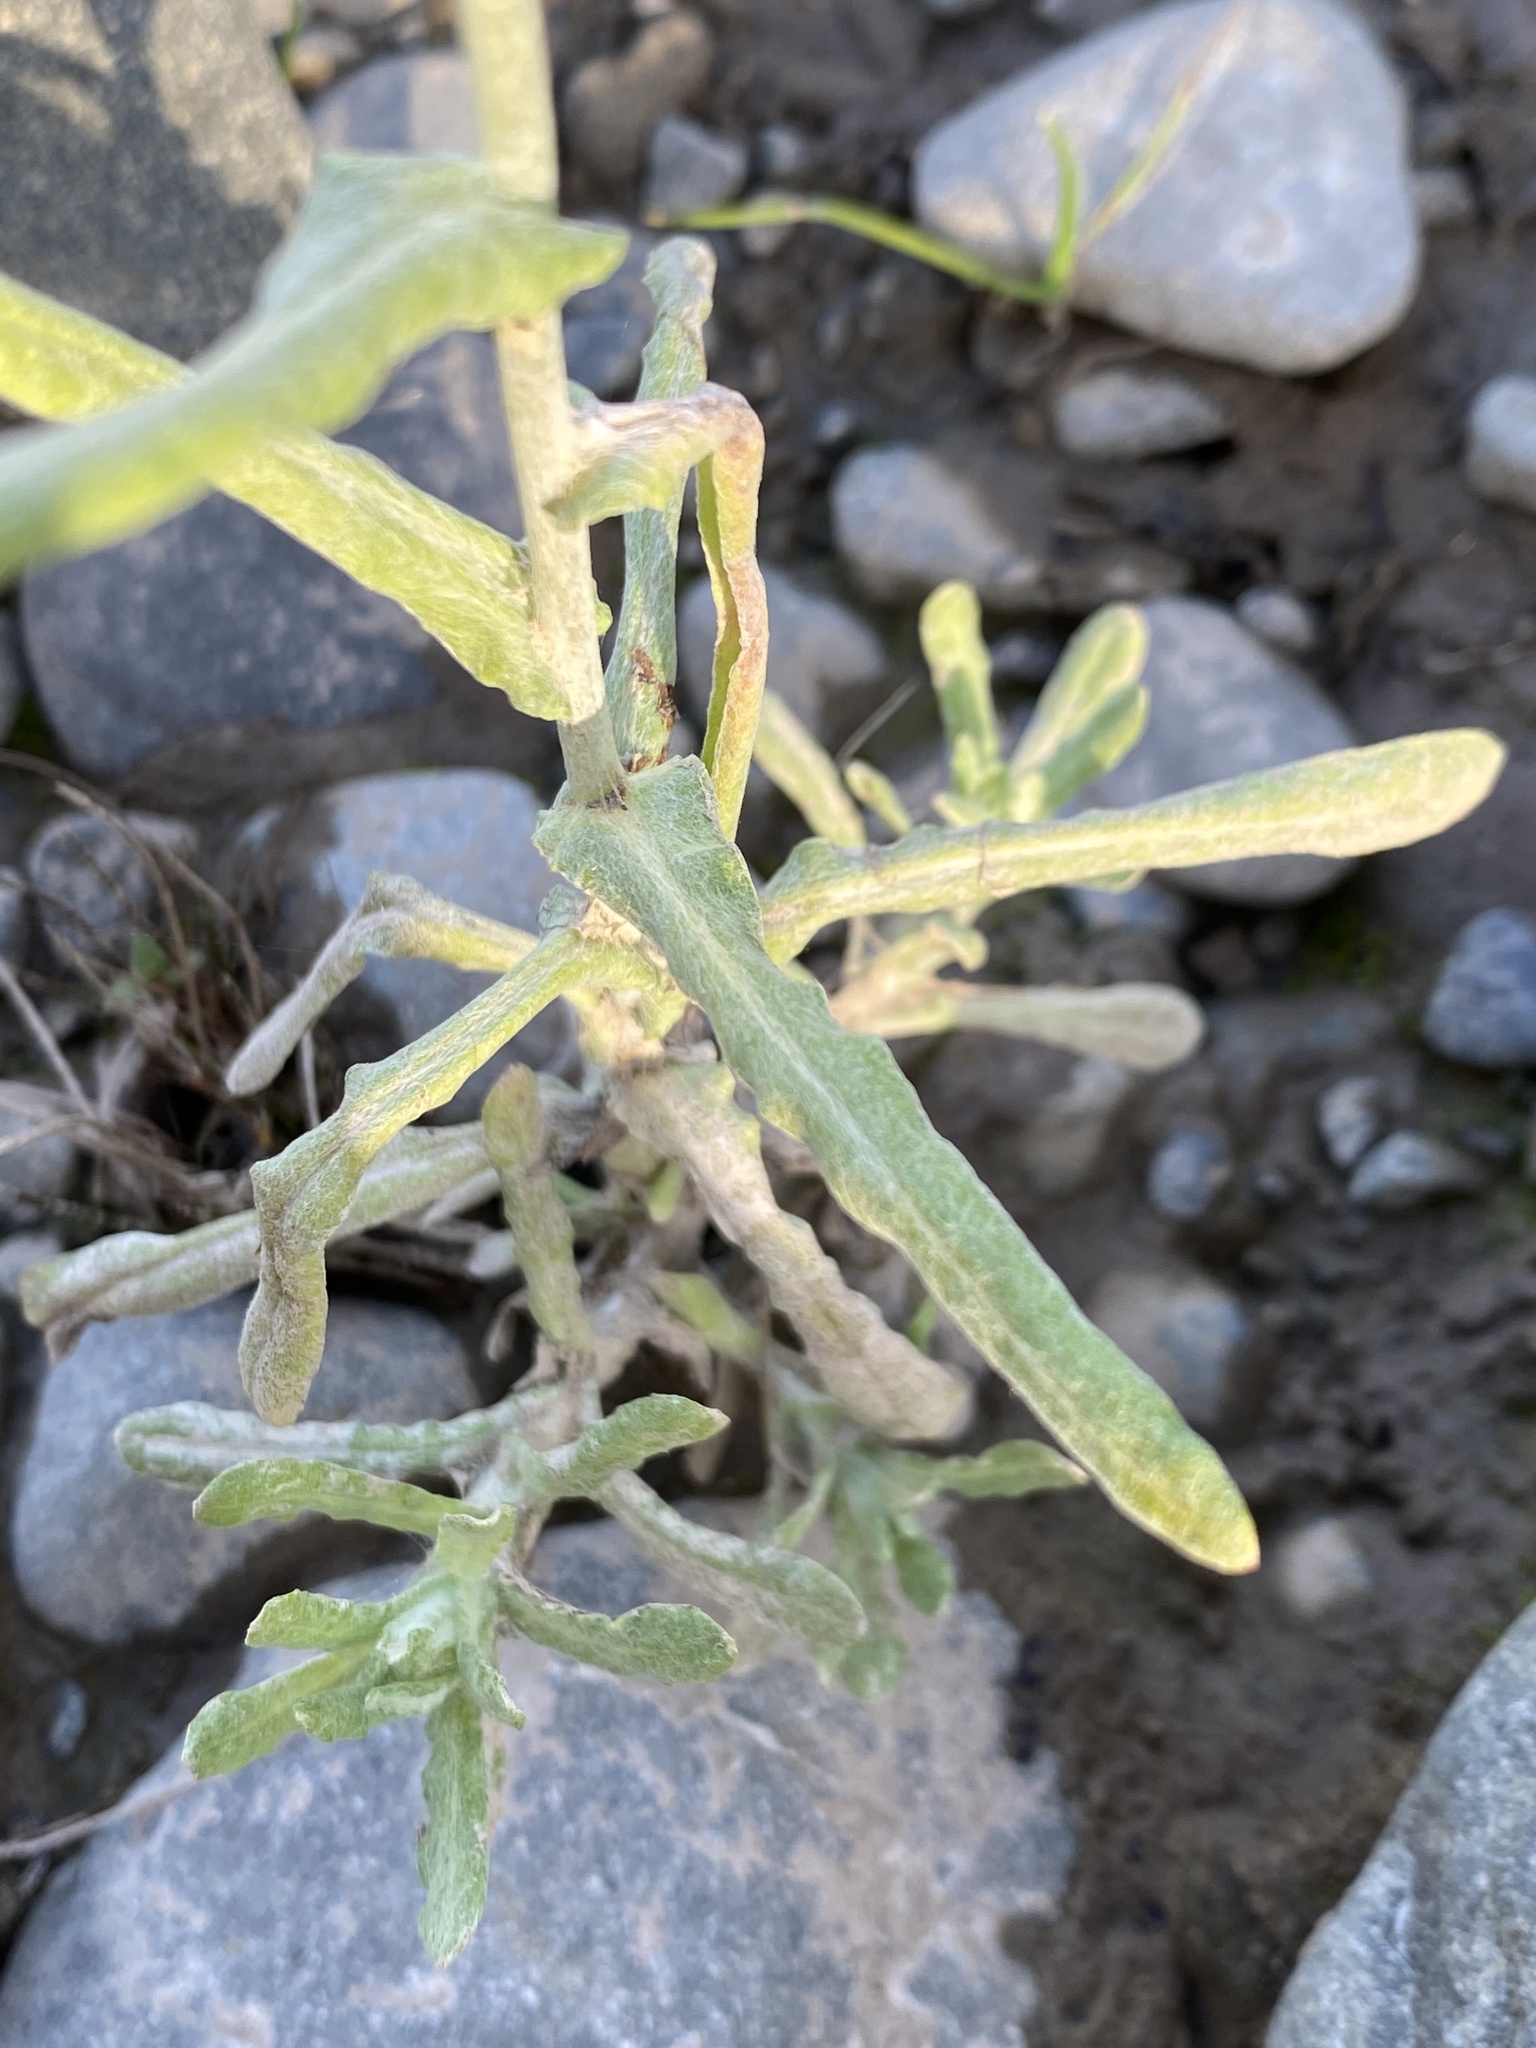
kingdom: Plantae
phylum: Tracheophyta
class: Magnoliopsida
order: Asterales
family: Asteraceae
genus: Helichrysum
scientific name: Helichrysum luteoalbum
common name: Daisy
